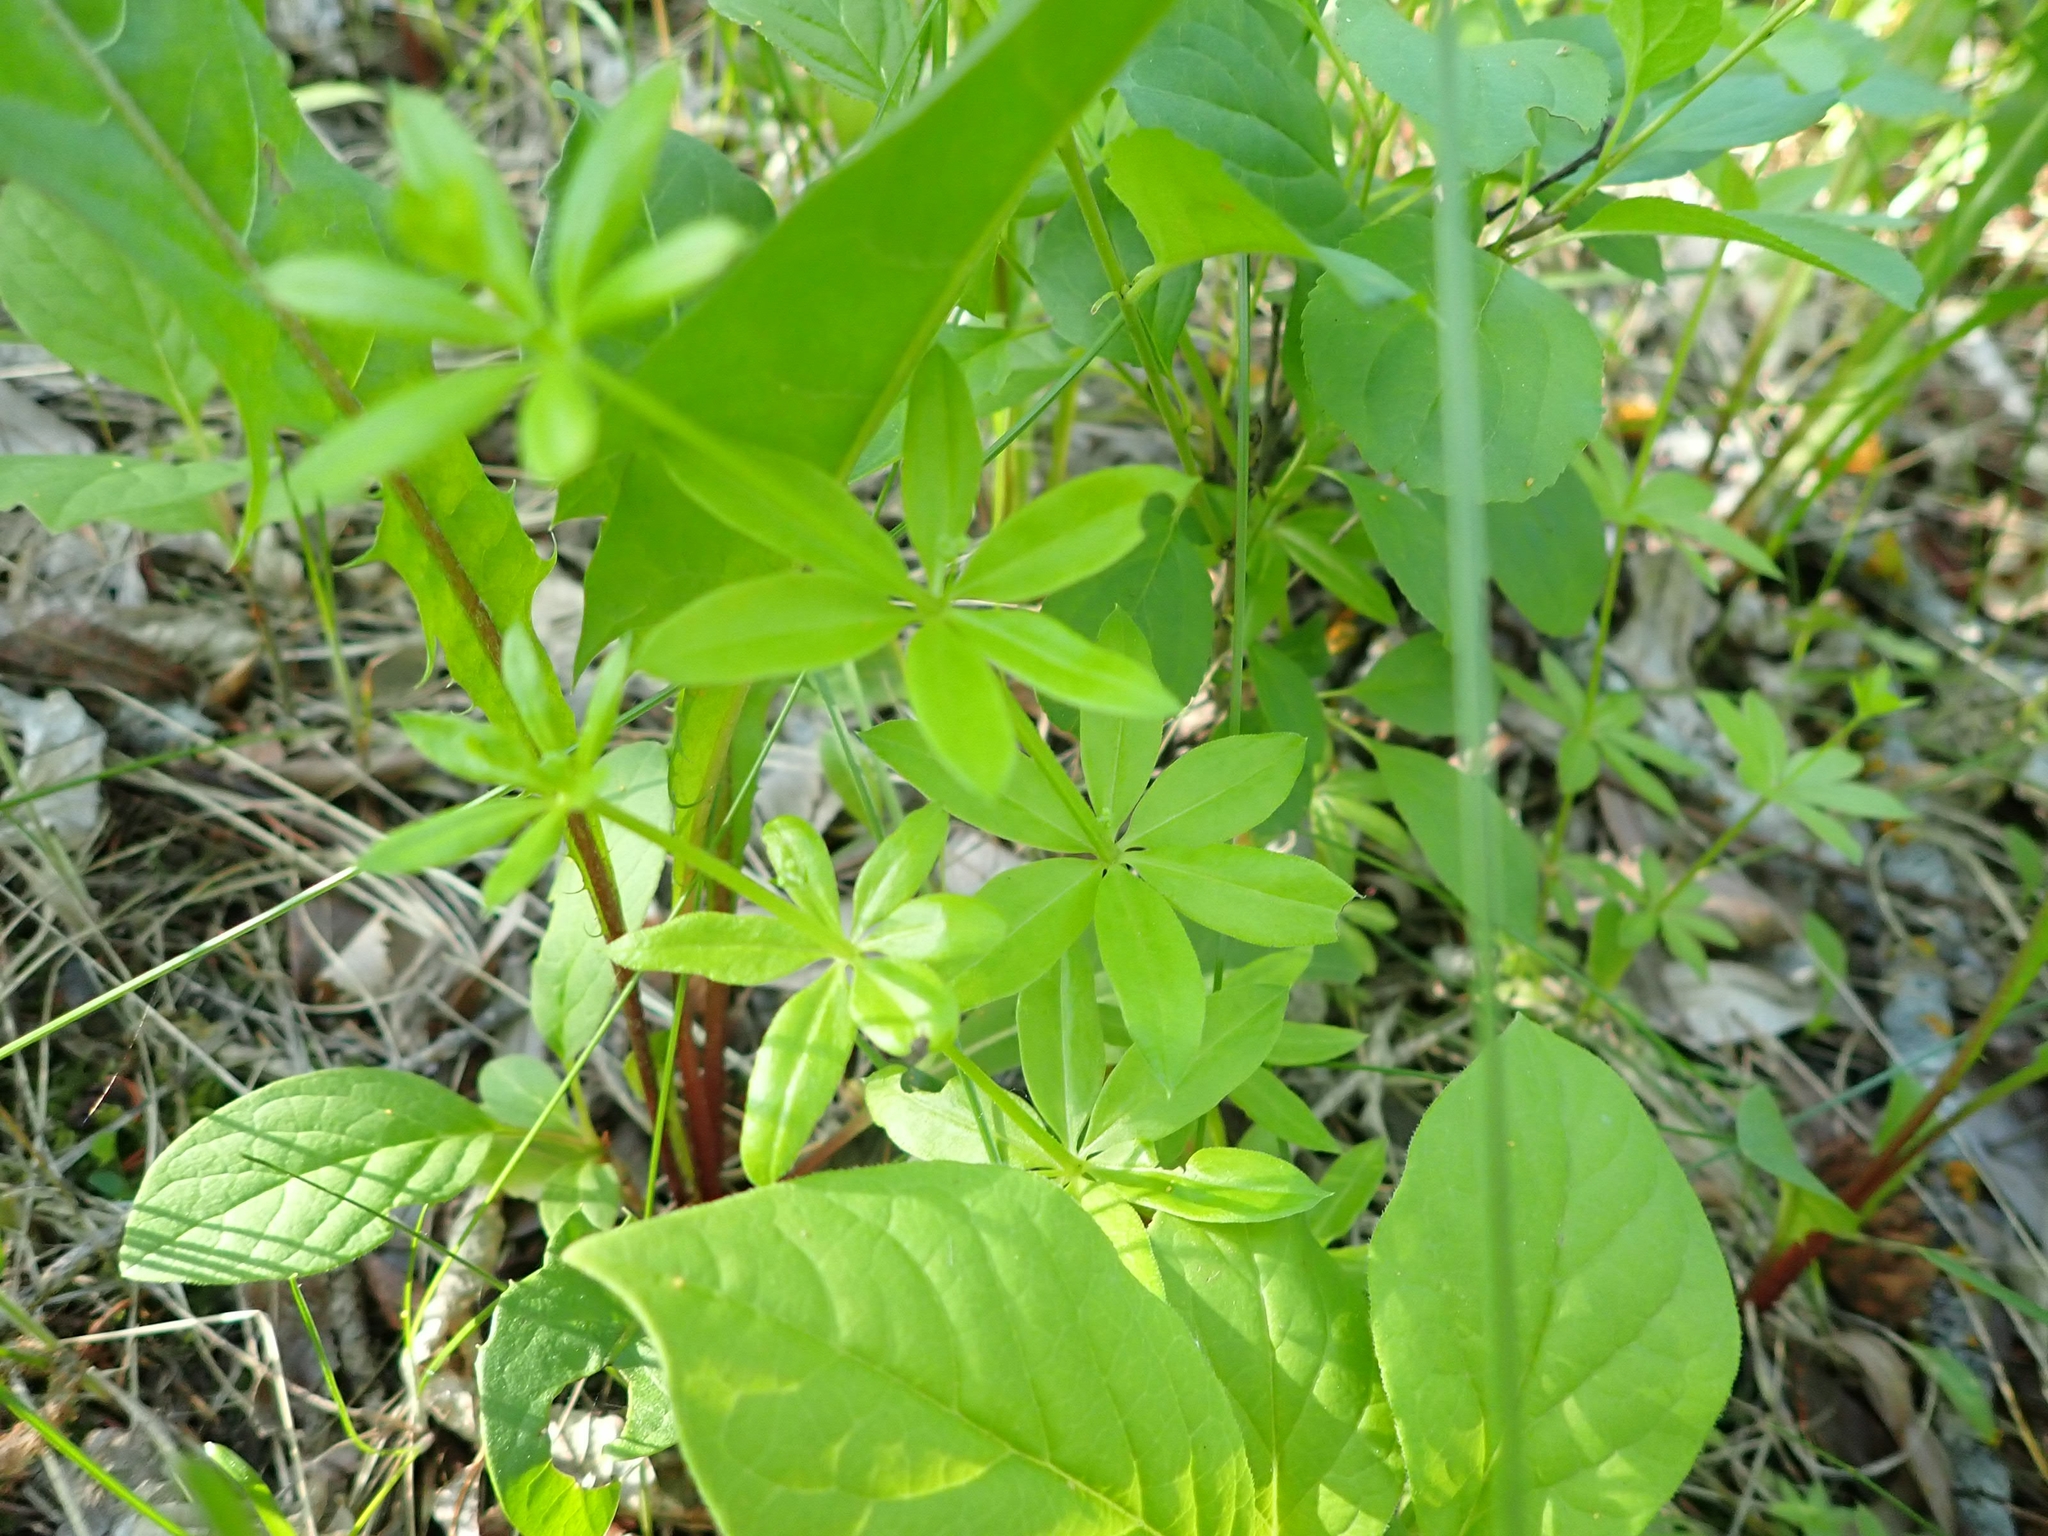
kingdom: Plantae
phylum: Tracheophyta
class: Magnoliopsida
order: Gentianales
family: Rubiaceae
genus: Galium
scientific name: Galium triflorum
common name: Fragrant bedstraw
